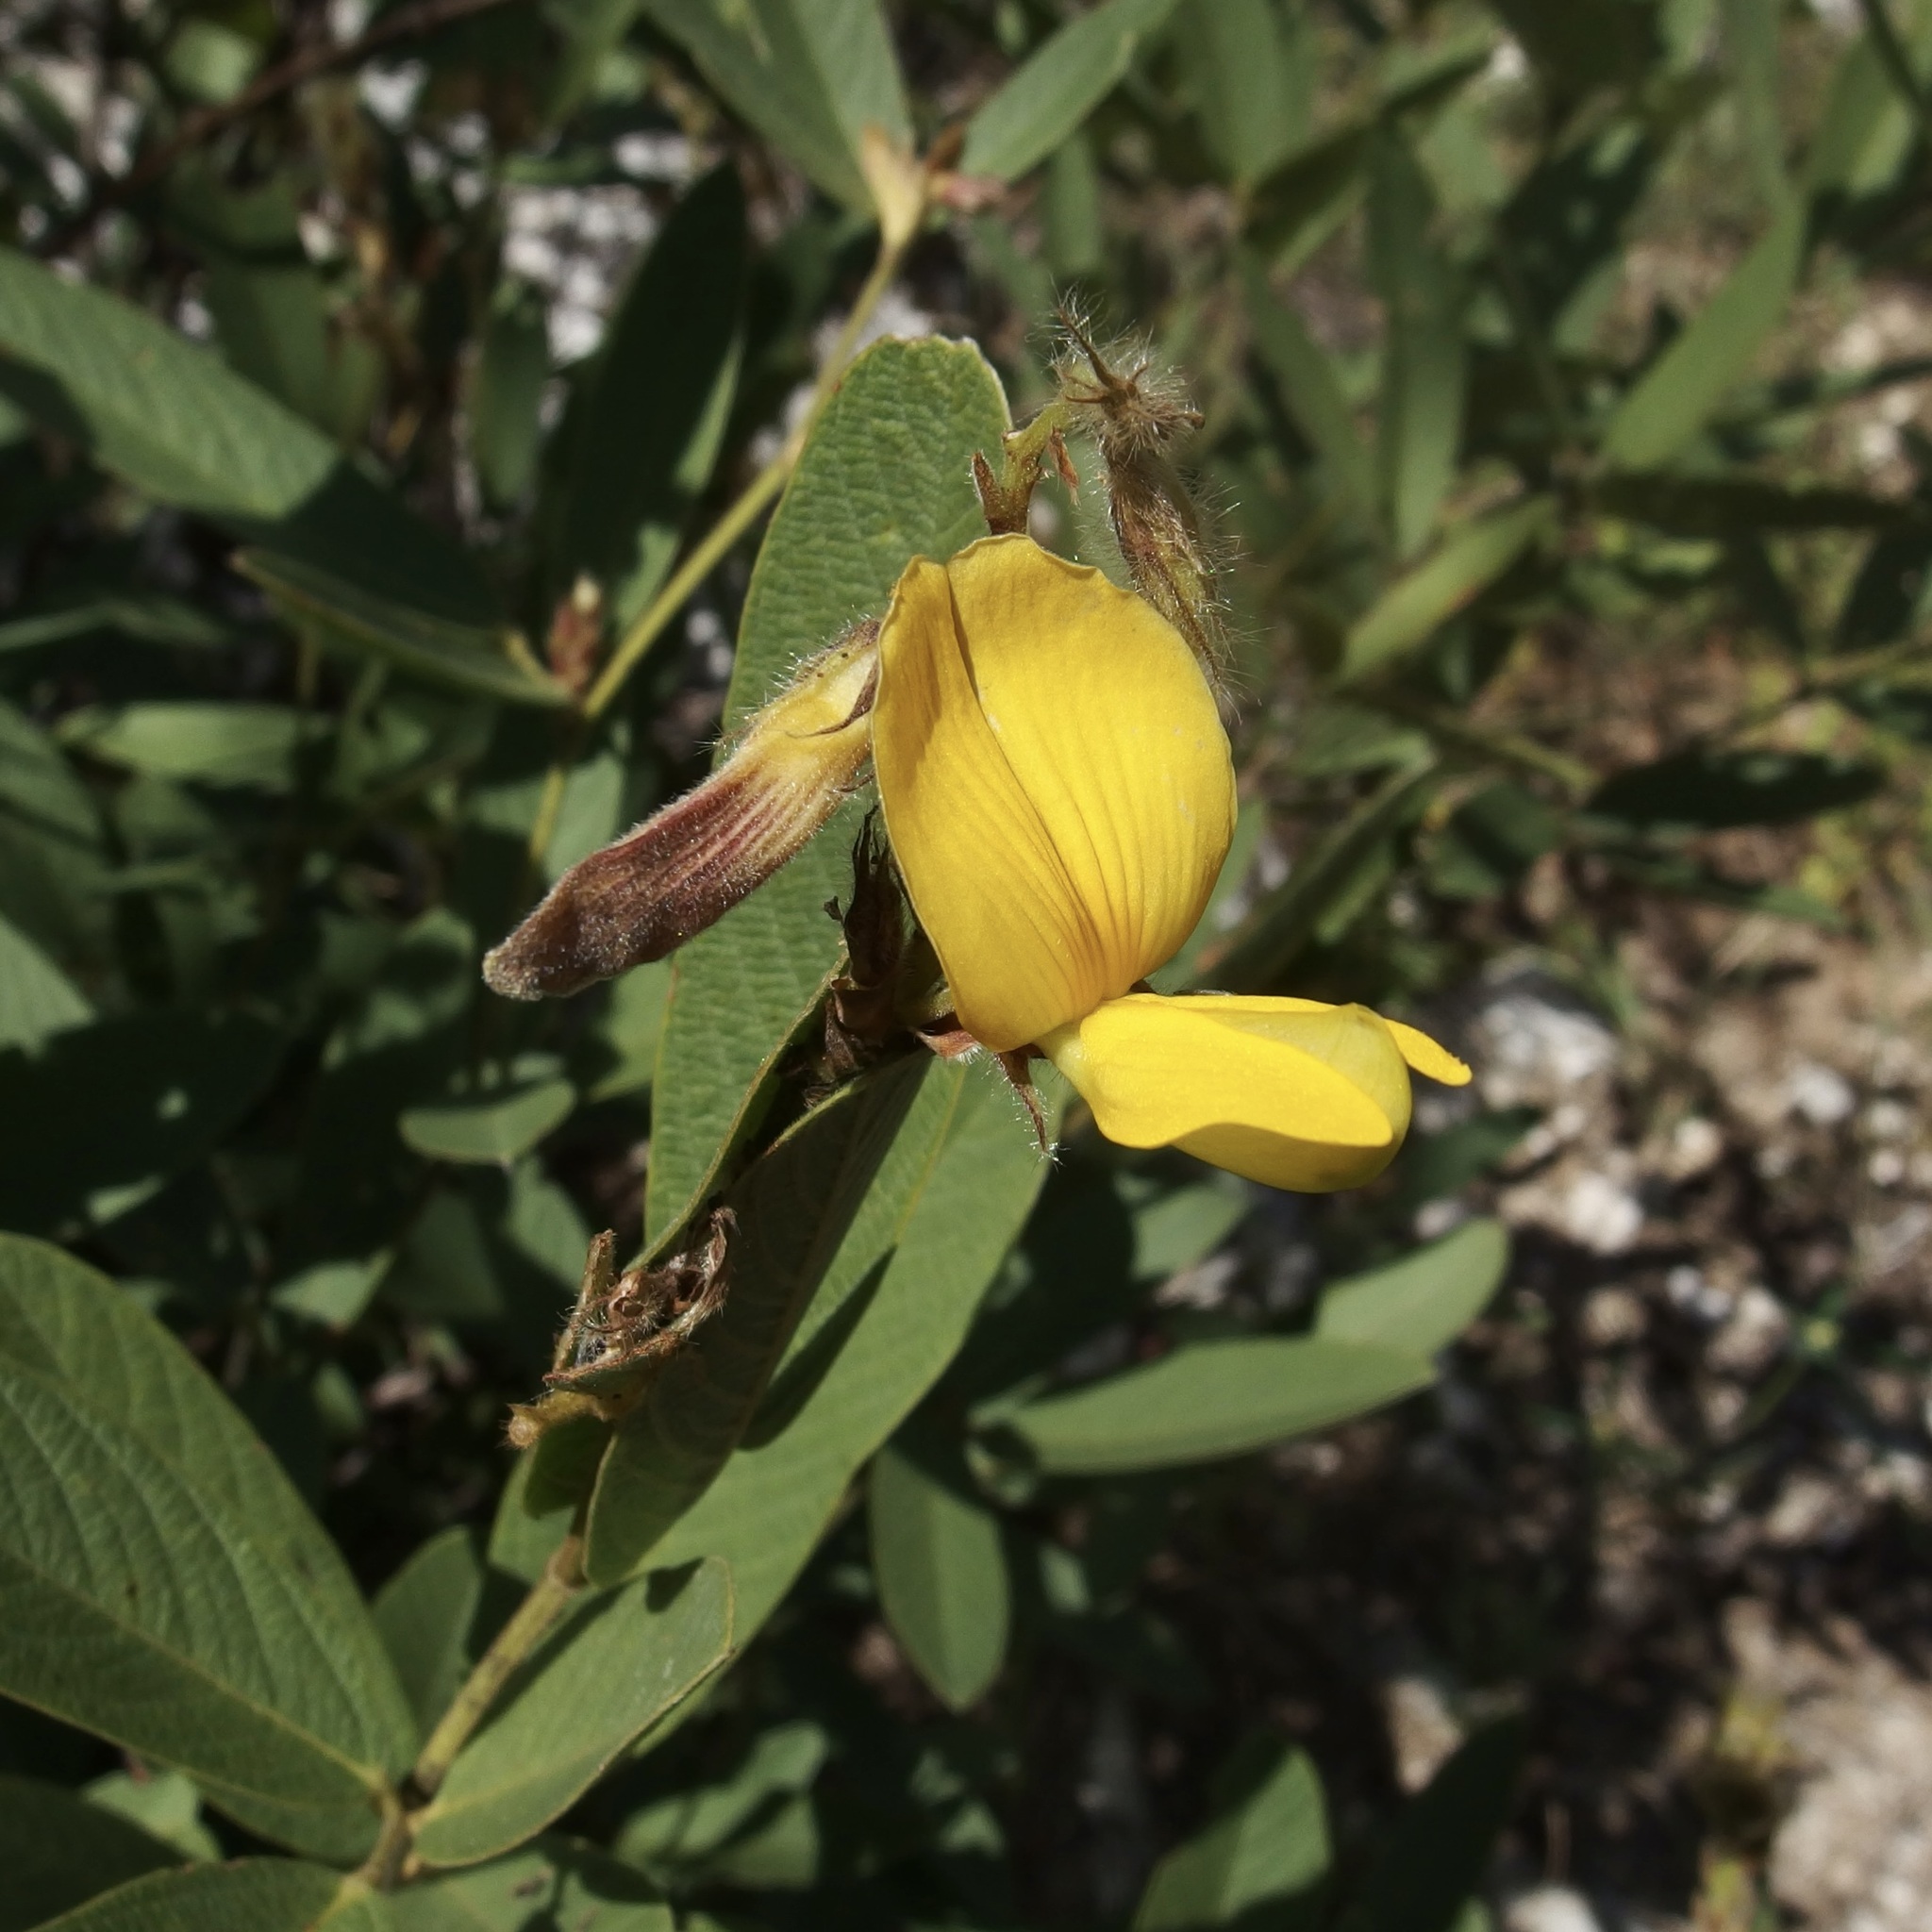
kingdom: Plantae
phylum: Tracheophyta
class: Magnoliopsida
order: Fabales
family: Fabaceae
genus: Eriosema
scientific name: Eriosema grandiflorum
